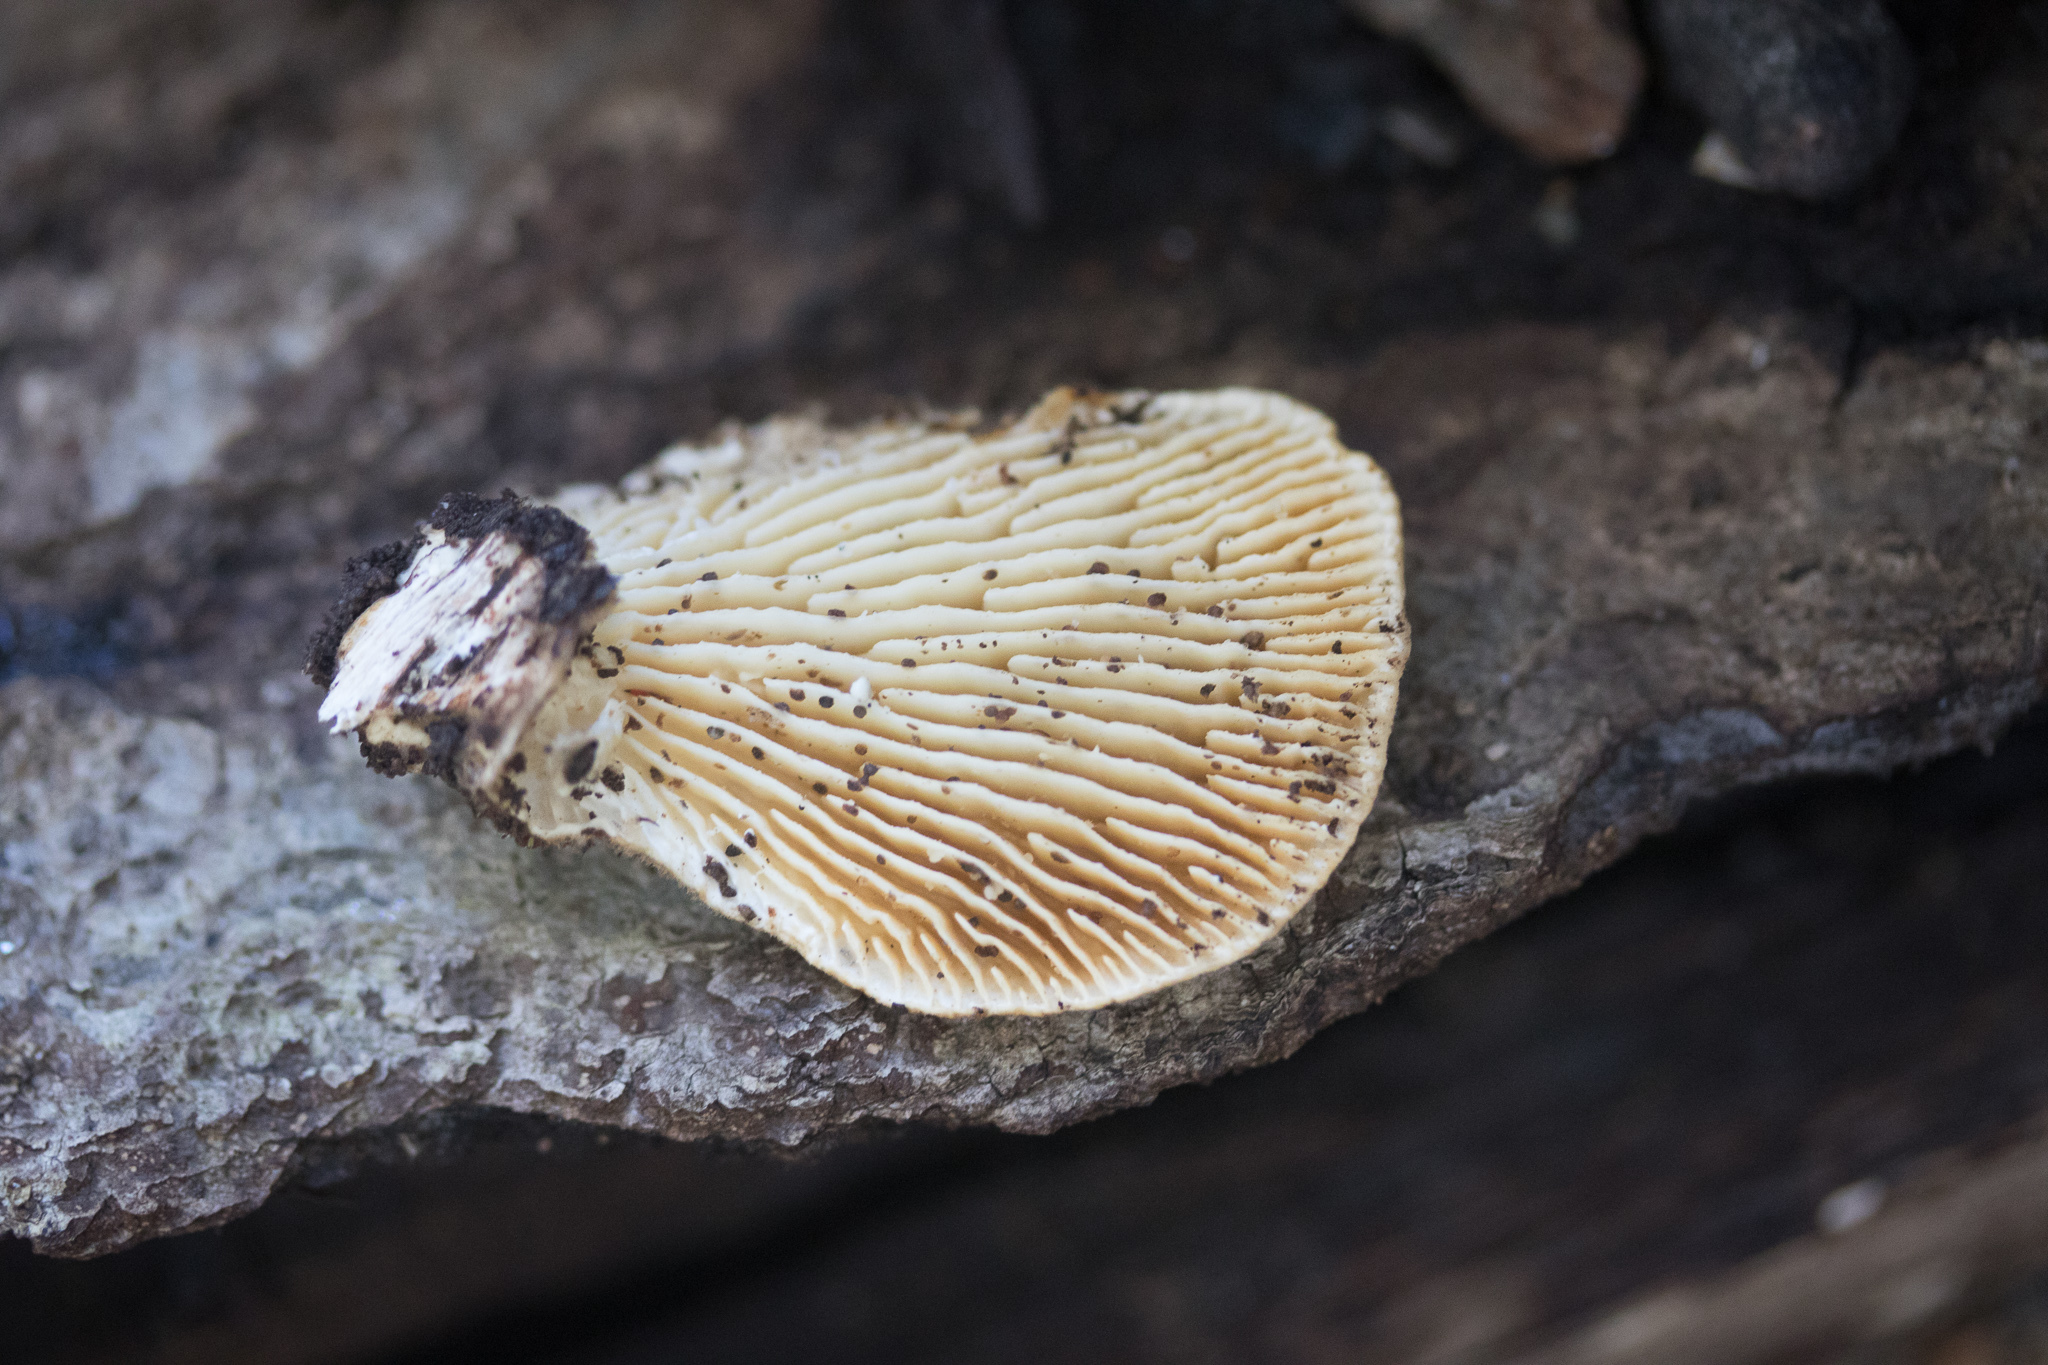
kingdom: Fungi
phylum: Basidiomycota
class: Agaricomycetes
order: Polyporales
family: Polyporaceae
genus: Lenzites
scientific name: Lenzites betulinus
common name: Birch mazegill
